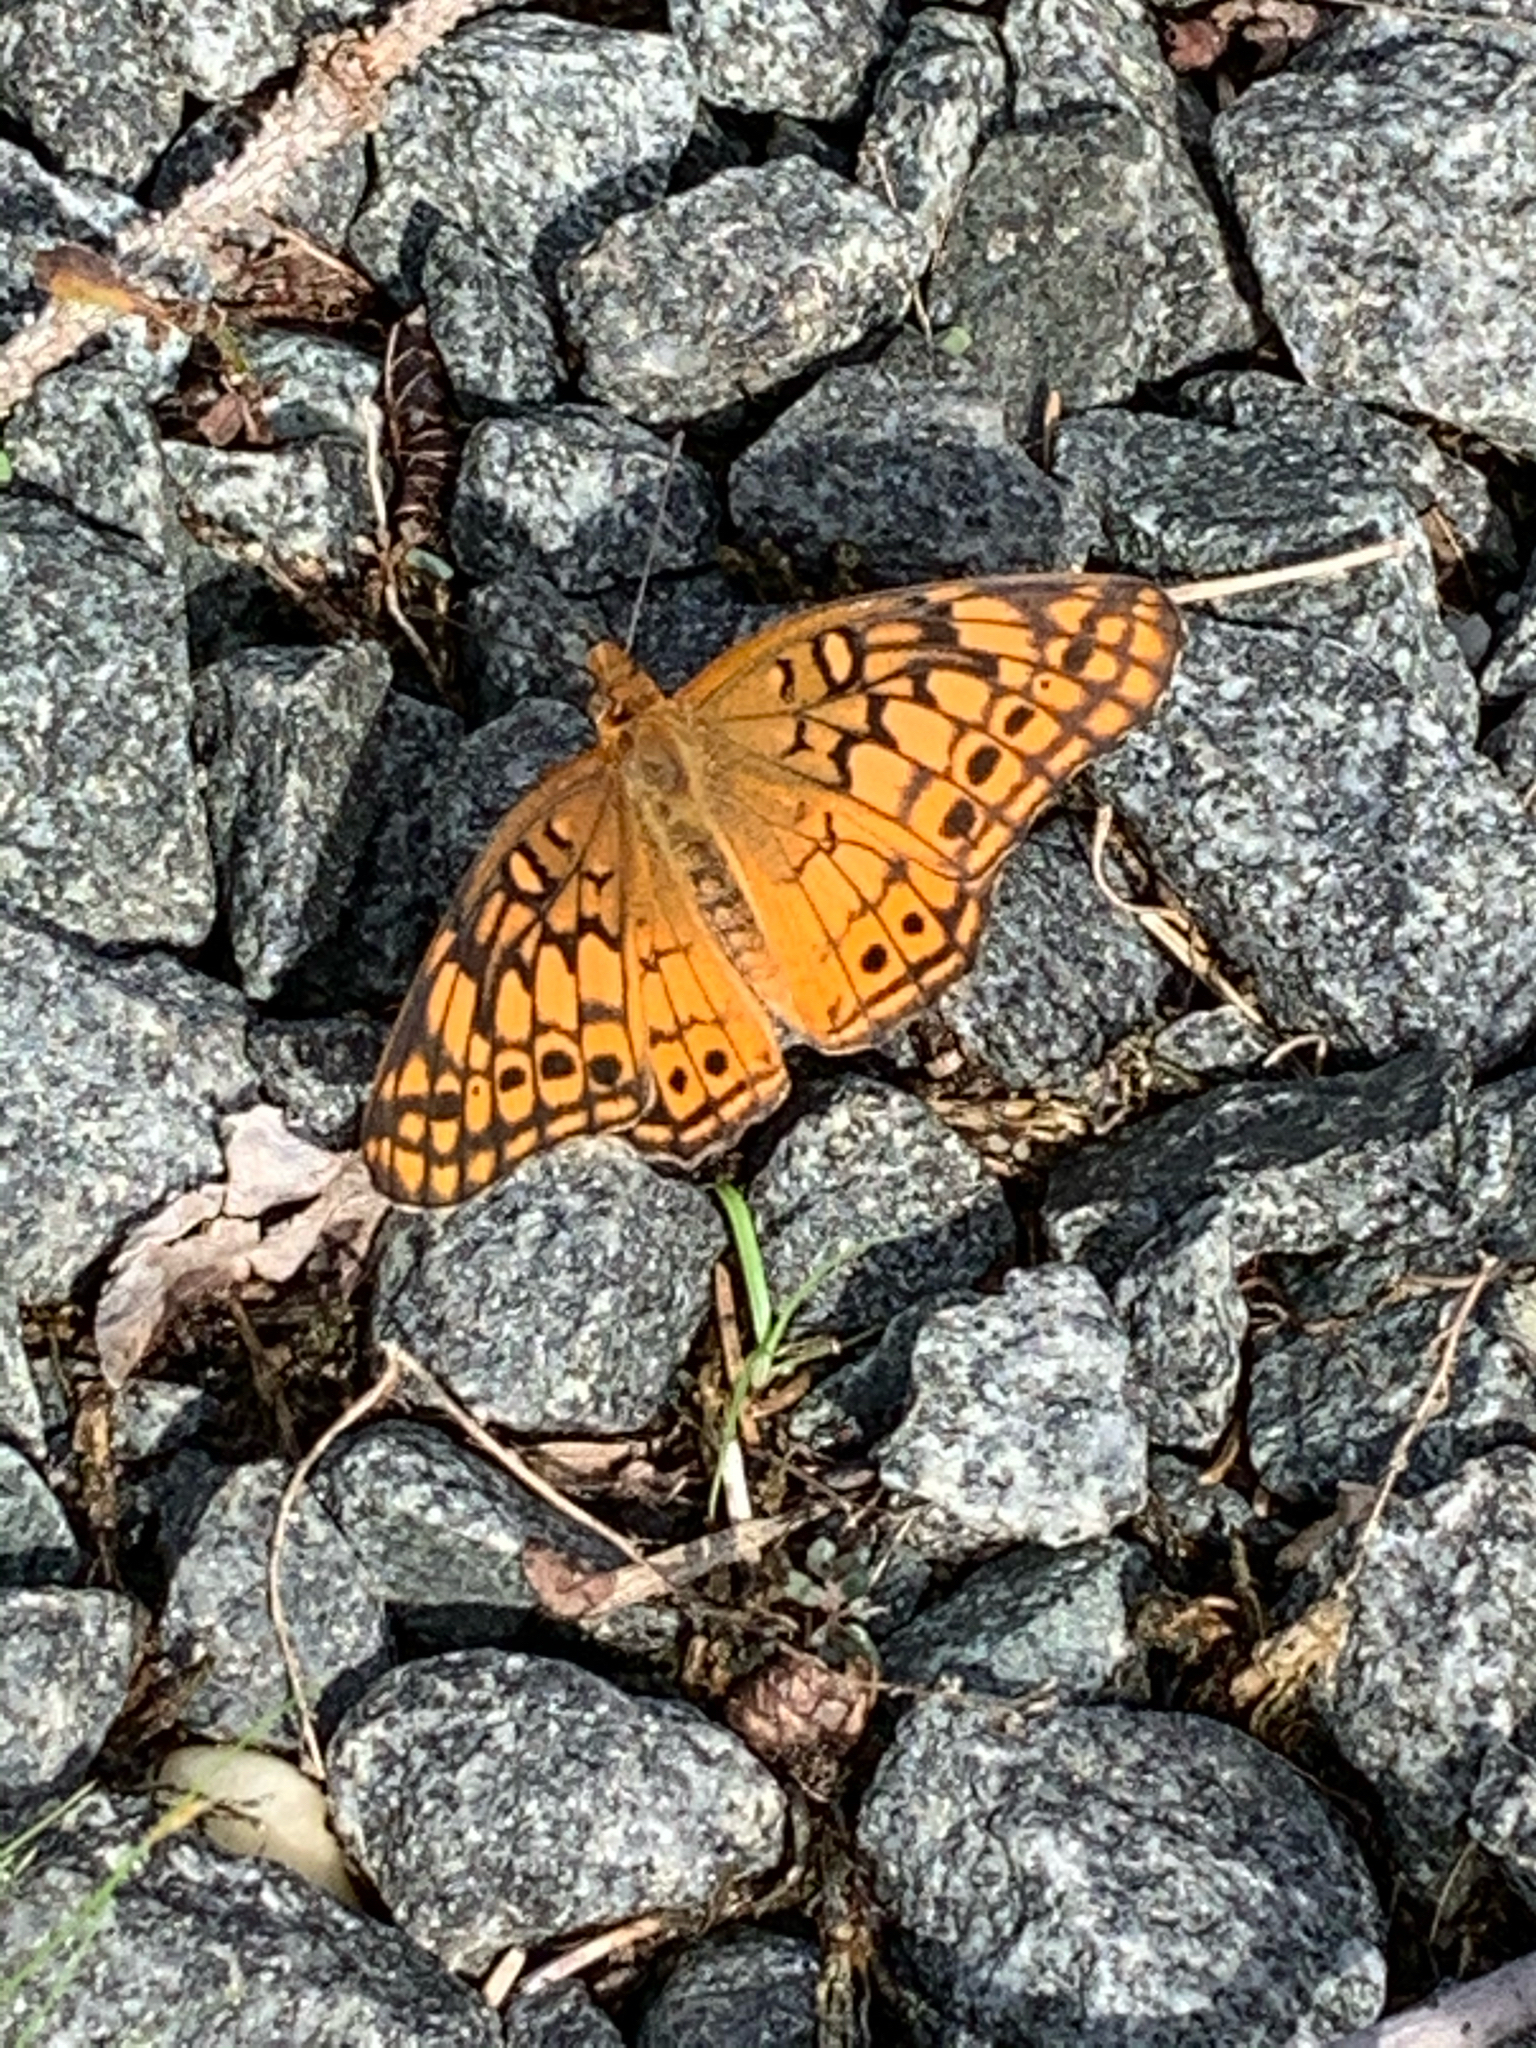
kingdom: Animalia
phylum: Arthropoda
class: Insecta
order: Lepidoptera
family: Nymphalidae
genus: Euptoieta
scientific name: Euptoieta claudia
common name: Variegated fritillary
